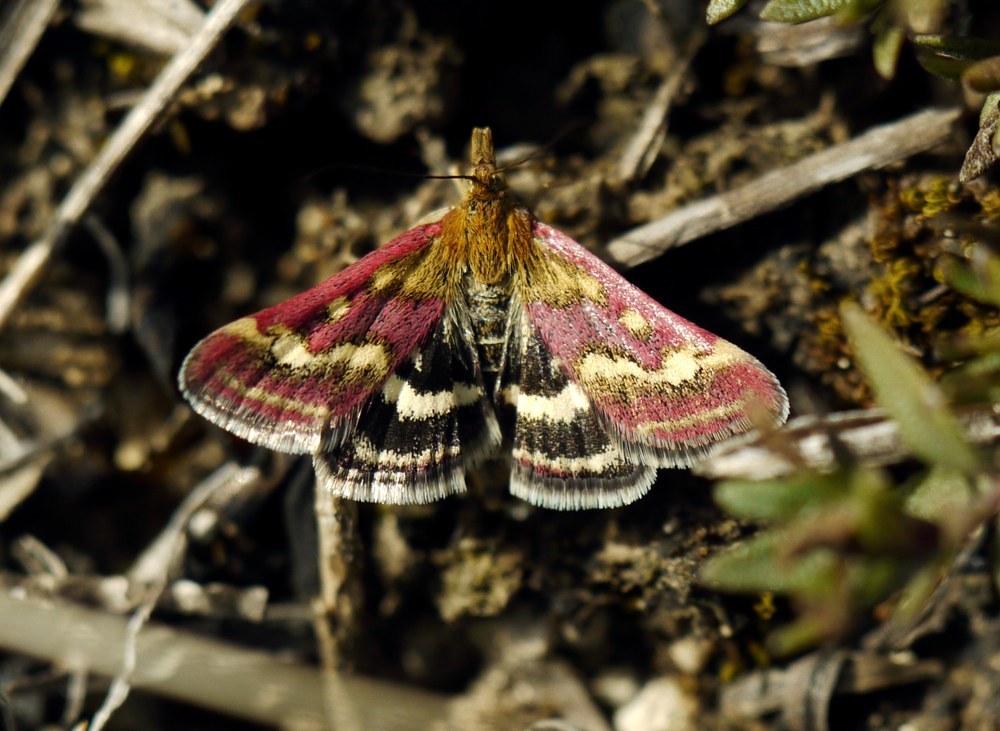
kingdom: Animalia
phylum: Arthropoda
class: Insecta
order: Lepidoptera
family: Crambidae
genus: Pyrausta
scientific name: Pyrausta ostrinalis
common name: Scarce purple & gold
